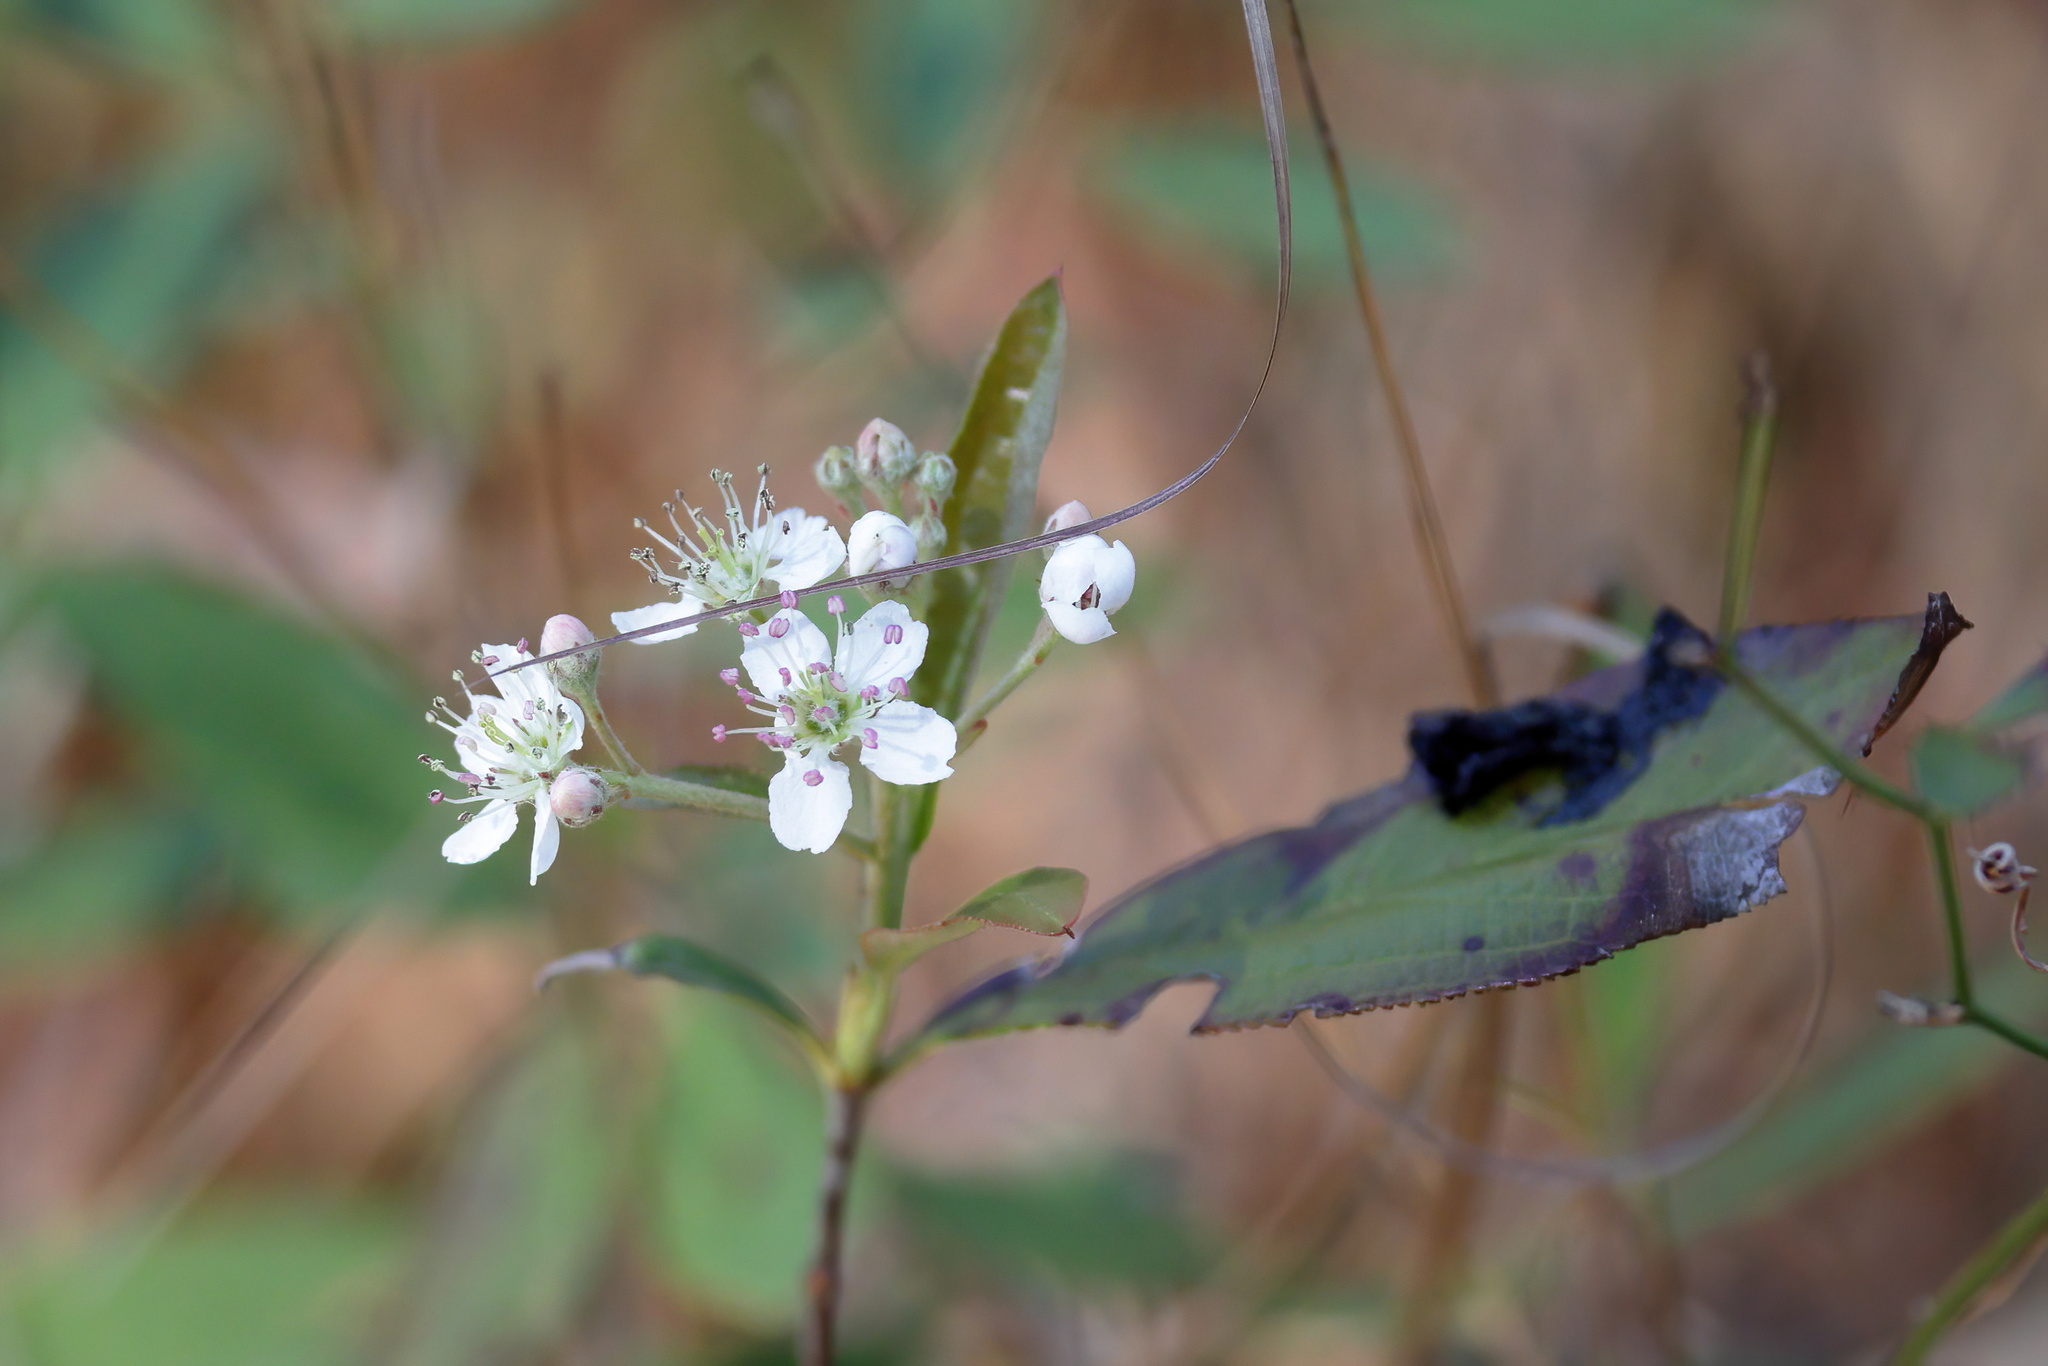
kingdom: Plantae
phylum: Tracheophyta
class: Magnoliopsida
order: Rosales
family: Rosaceae
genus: Aronia
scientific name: Aronia arbutifolia
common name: Red chokeberry
